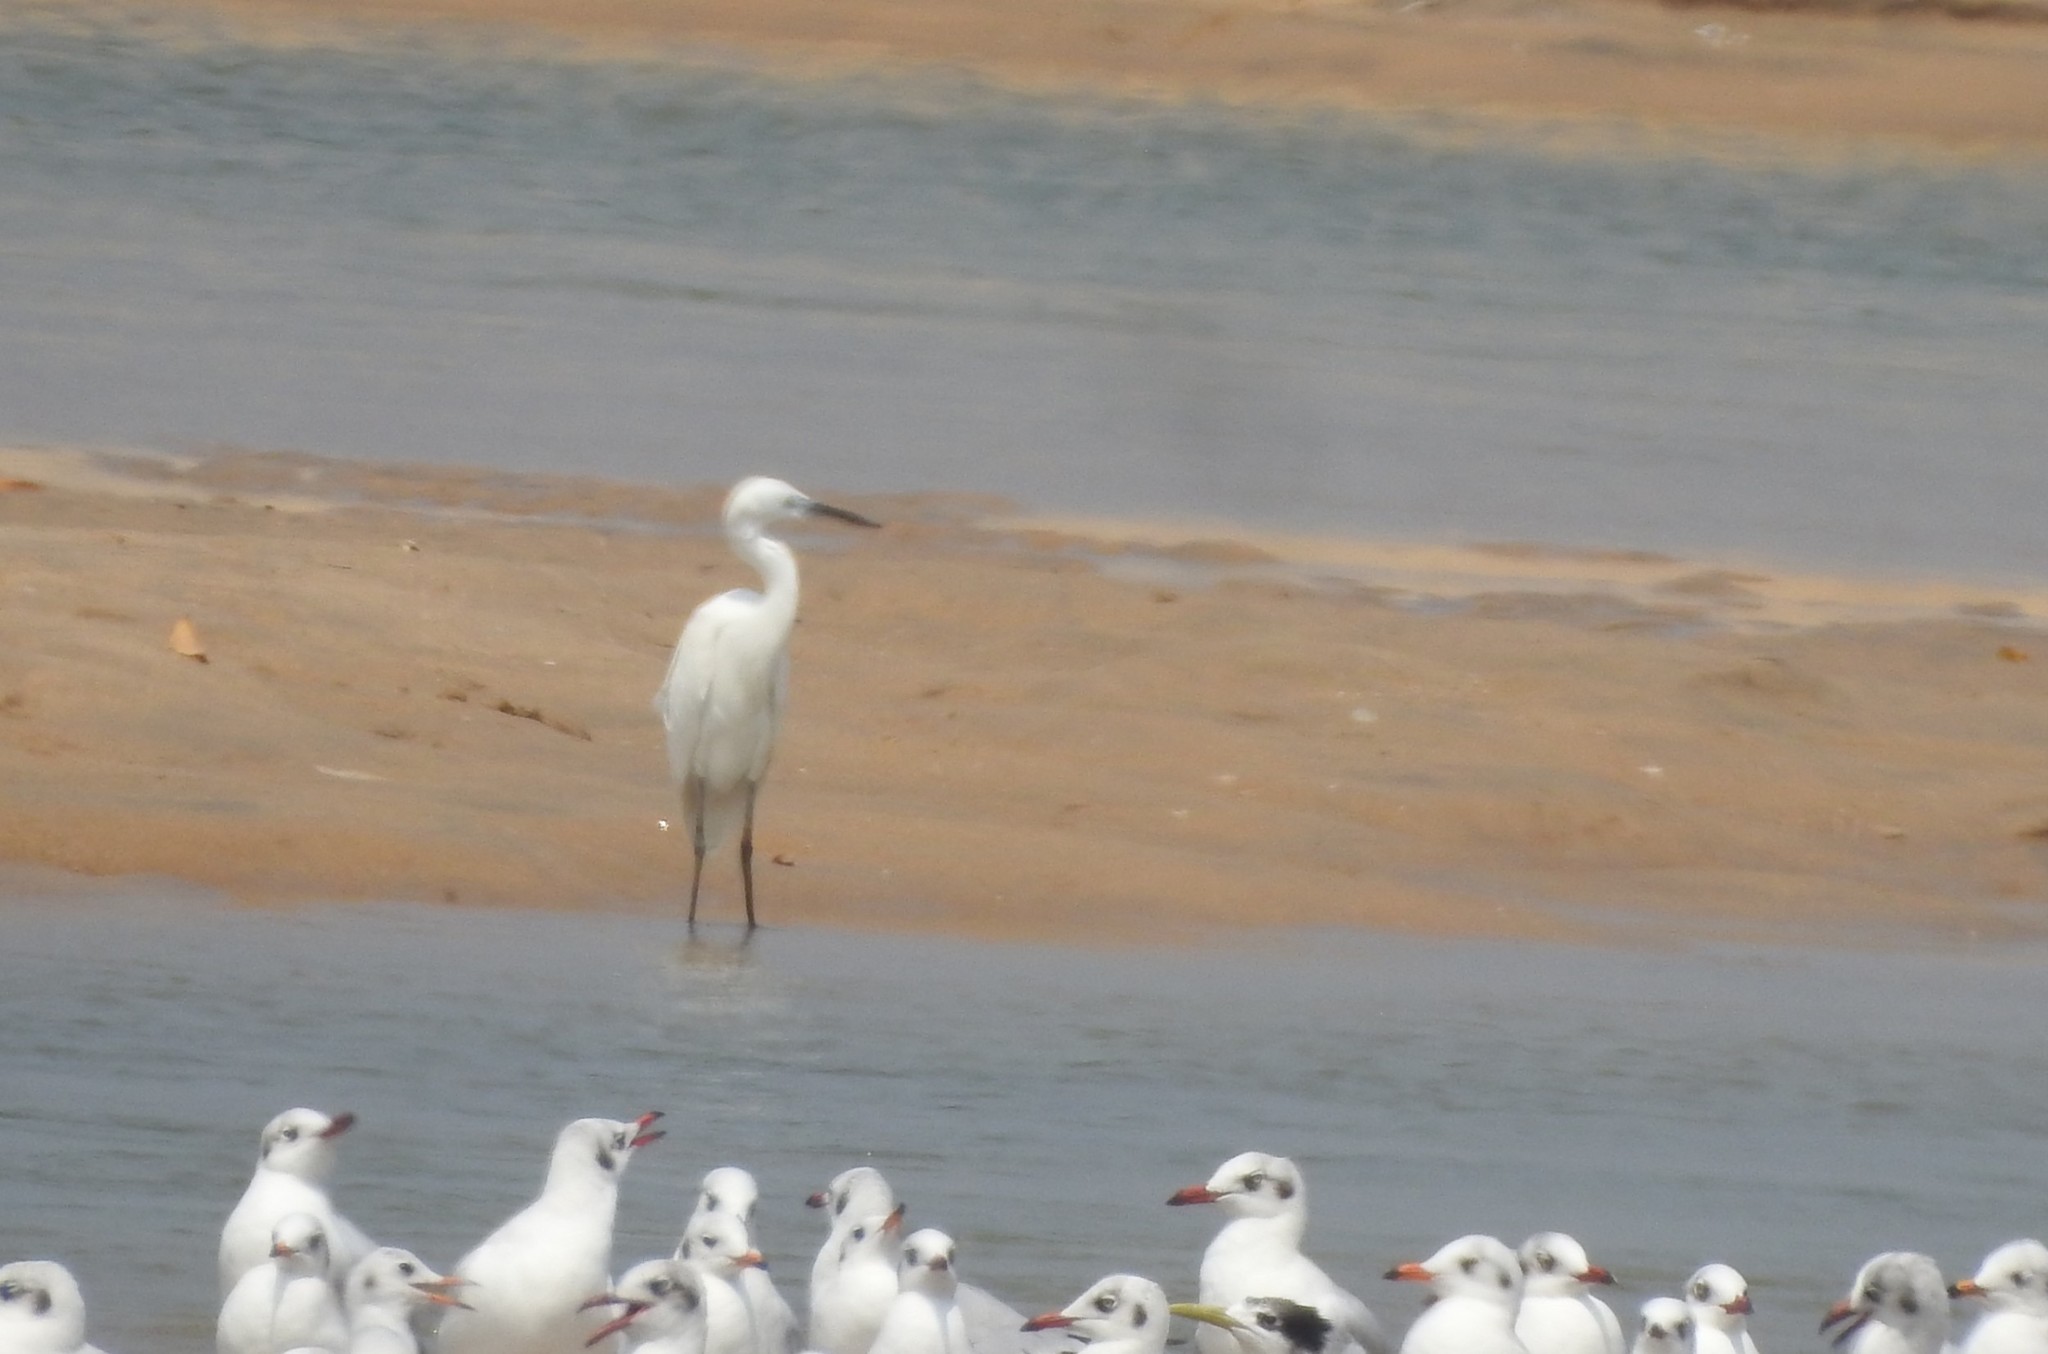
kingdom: Animalia
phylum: Chordata
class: Aves
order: Pelecaniformes
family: Ardeidae
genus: Egretta
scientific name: Egretta garzetta
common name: Little egret
